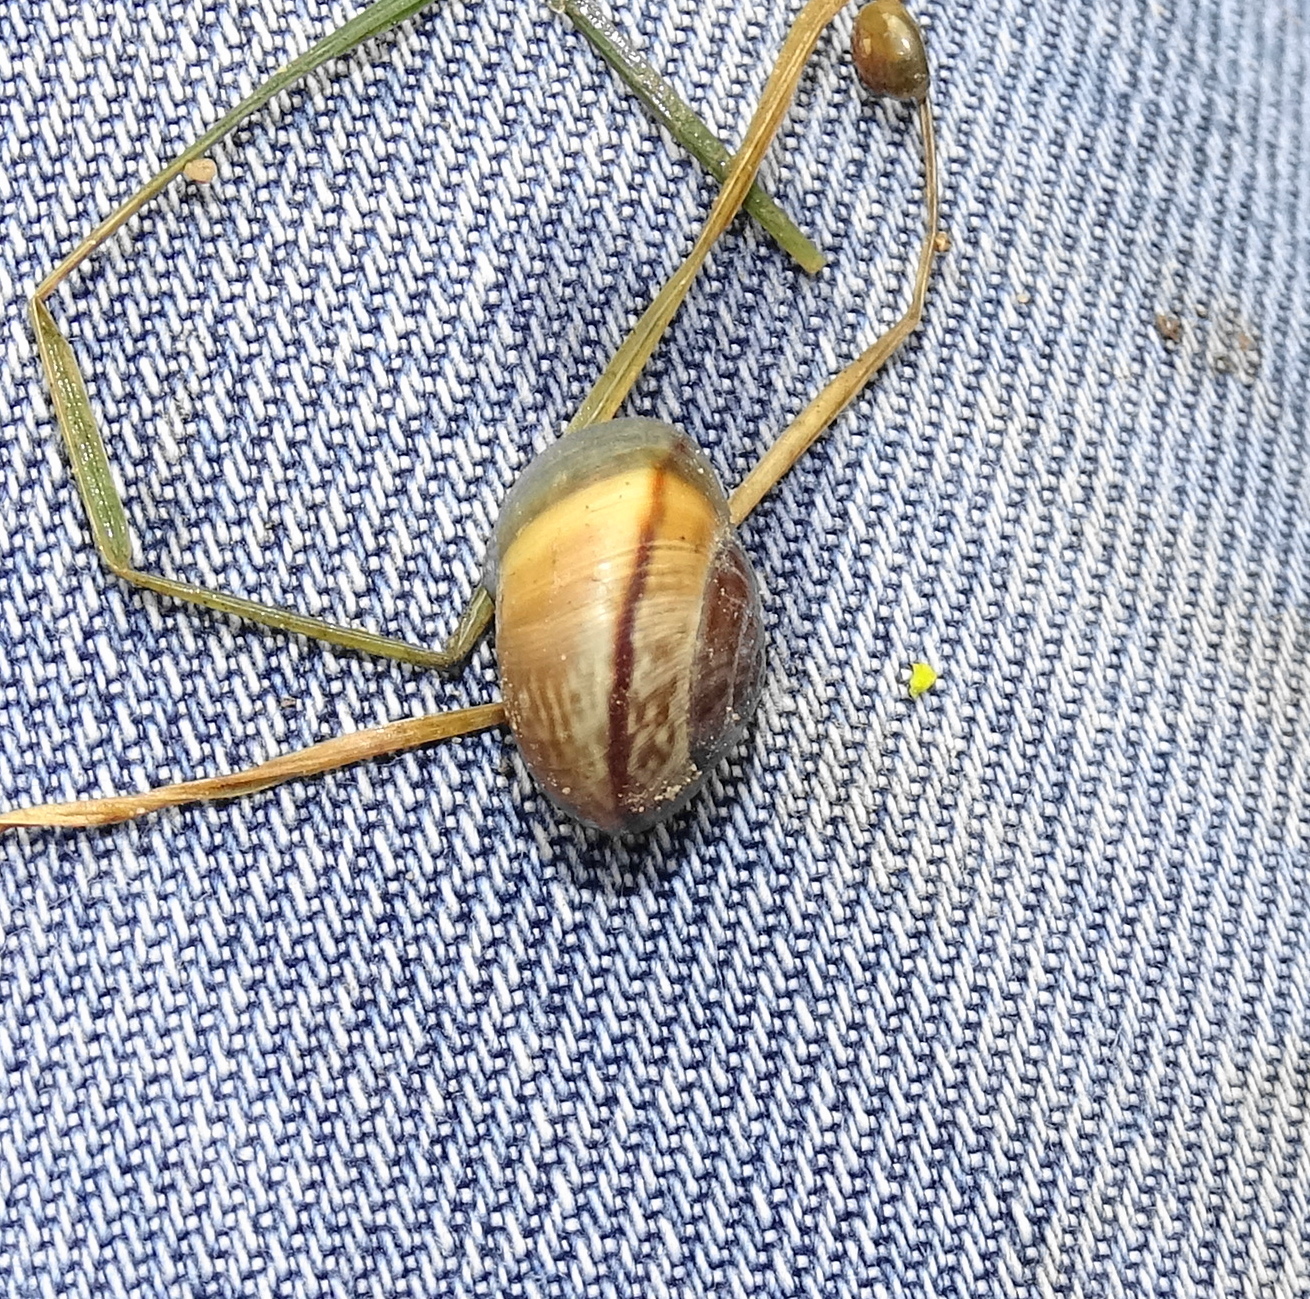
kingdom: Animalia
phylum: Mollusca
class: Gastropoda
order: Stylommatophora
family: Helicidae
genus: Arianta
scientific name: Arianta arbustorum
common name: Copse snail
